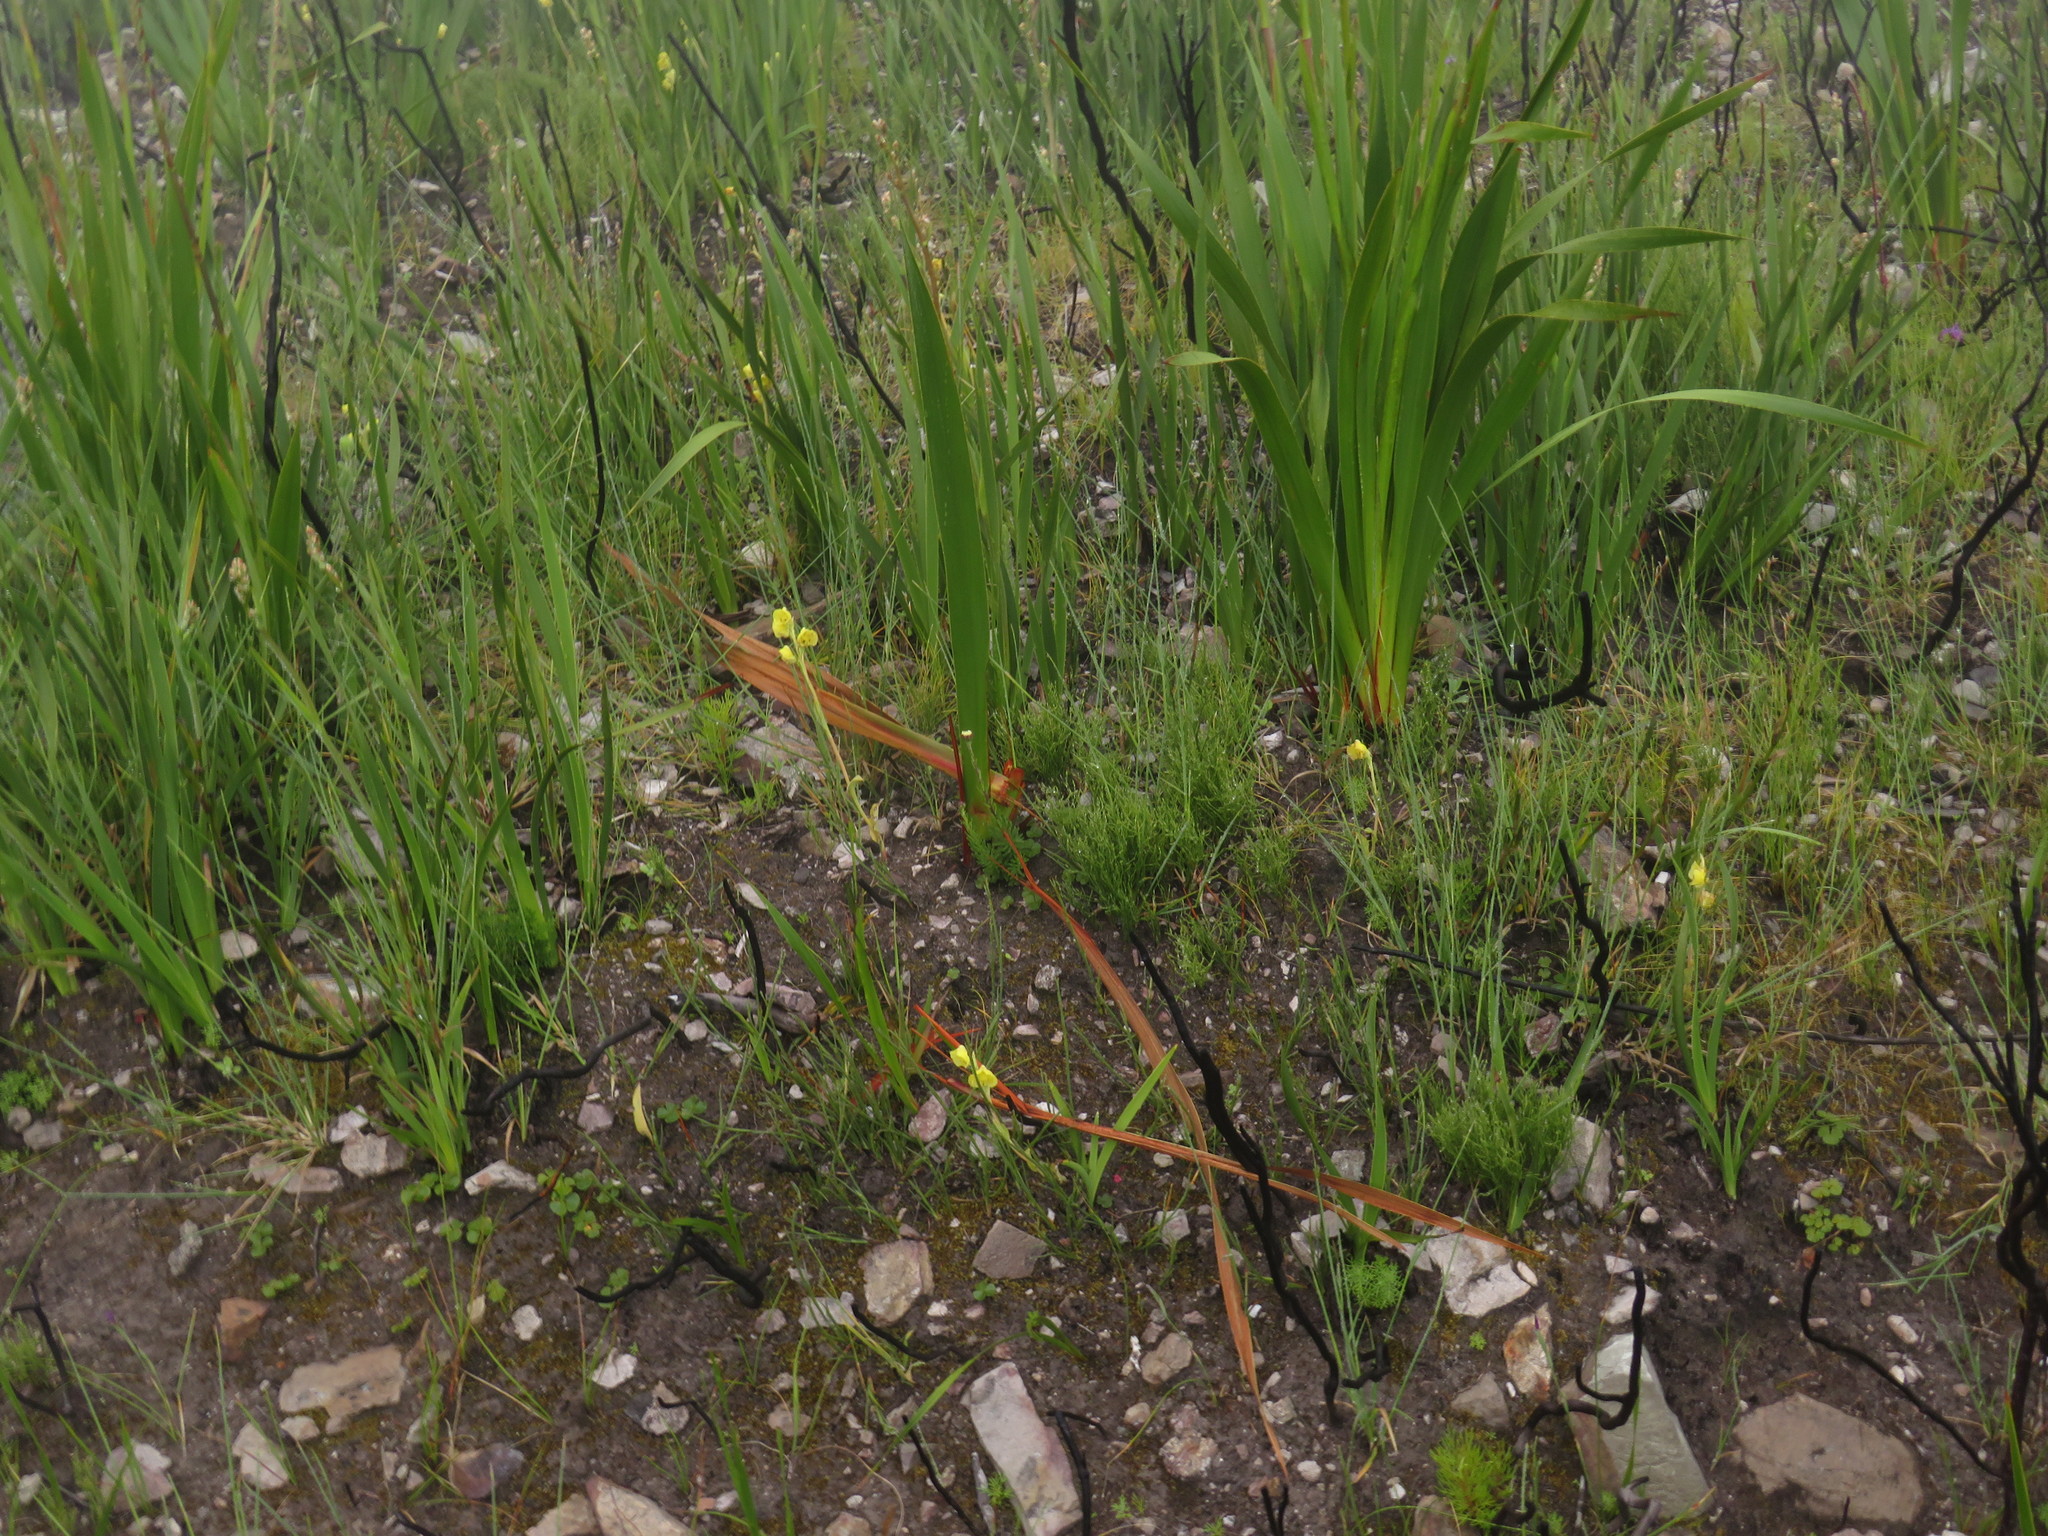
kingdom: Plantae
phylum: Tracheophyta
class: Liliopsida
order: Asparagales
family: Orchidaceae
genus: Pterygodium
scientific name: Pterygodium catholicum
